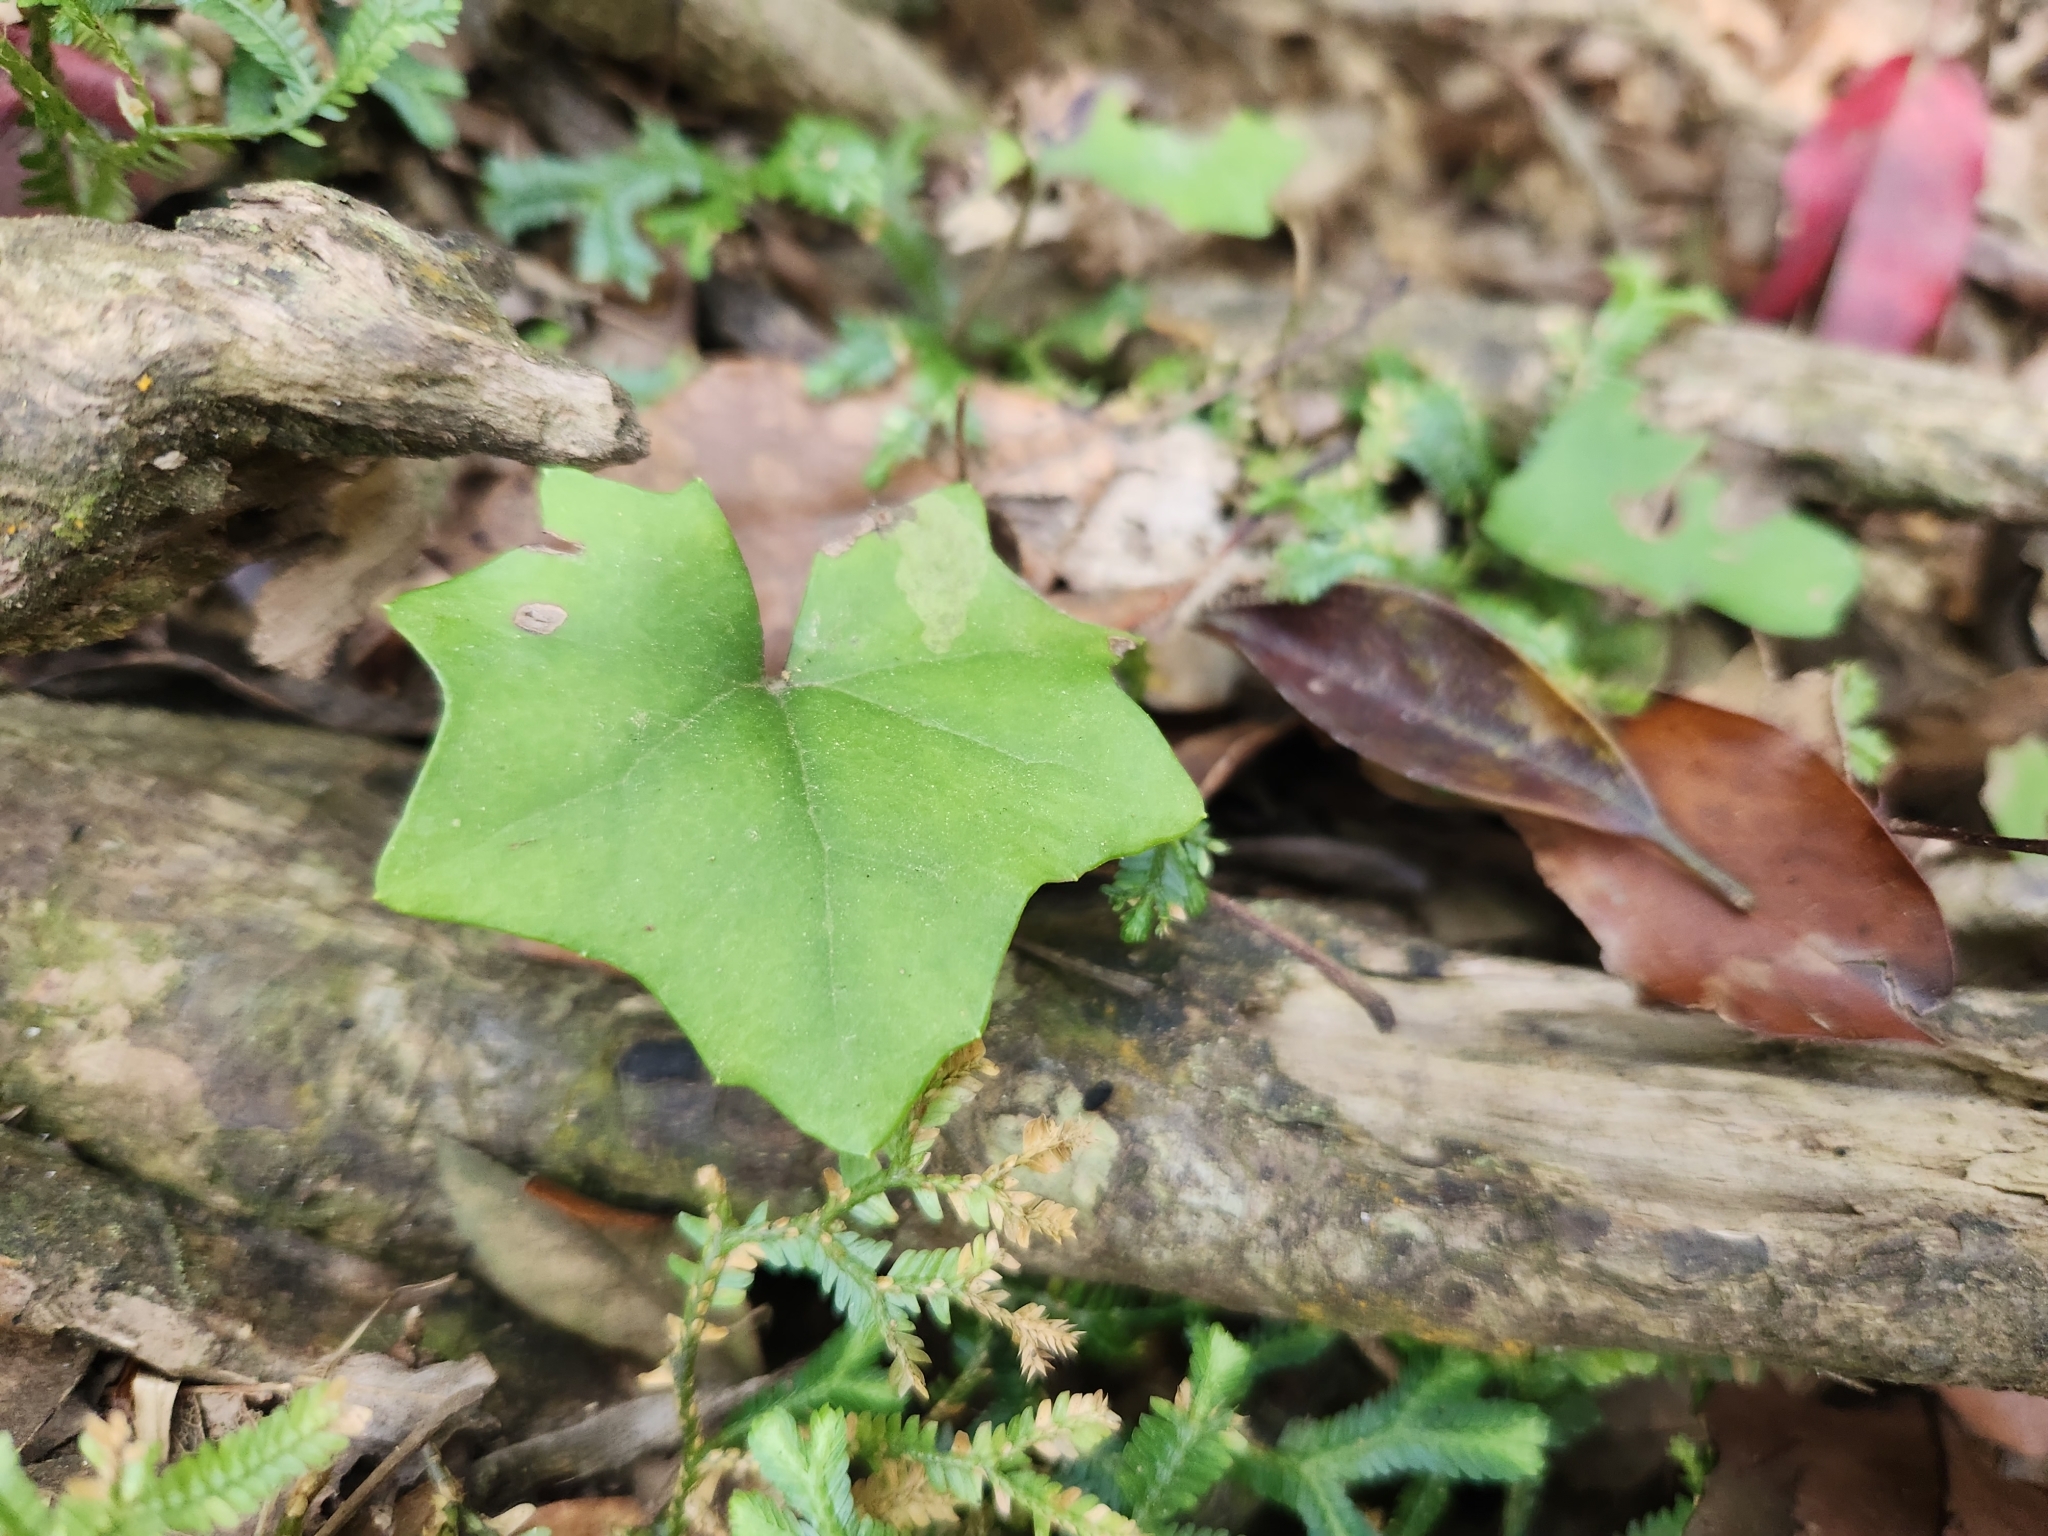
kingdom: Plantae
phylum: Tracheophyta
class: Magnoliopsida
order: Asterales
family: Asteraceae
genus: Farfugium
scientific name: Farfugium japonicum
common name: Leopardplant
